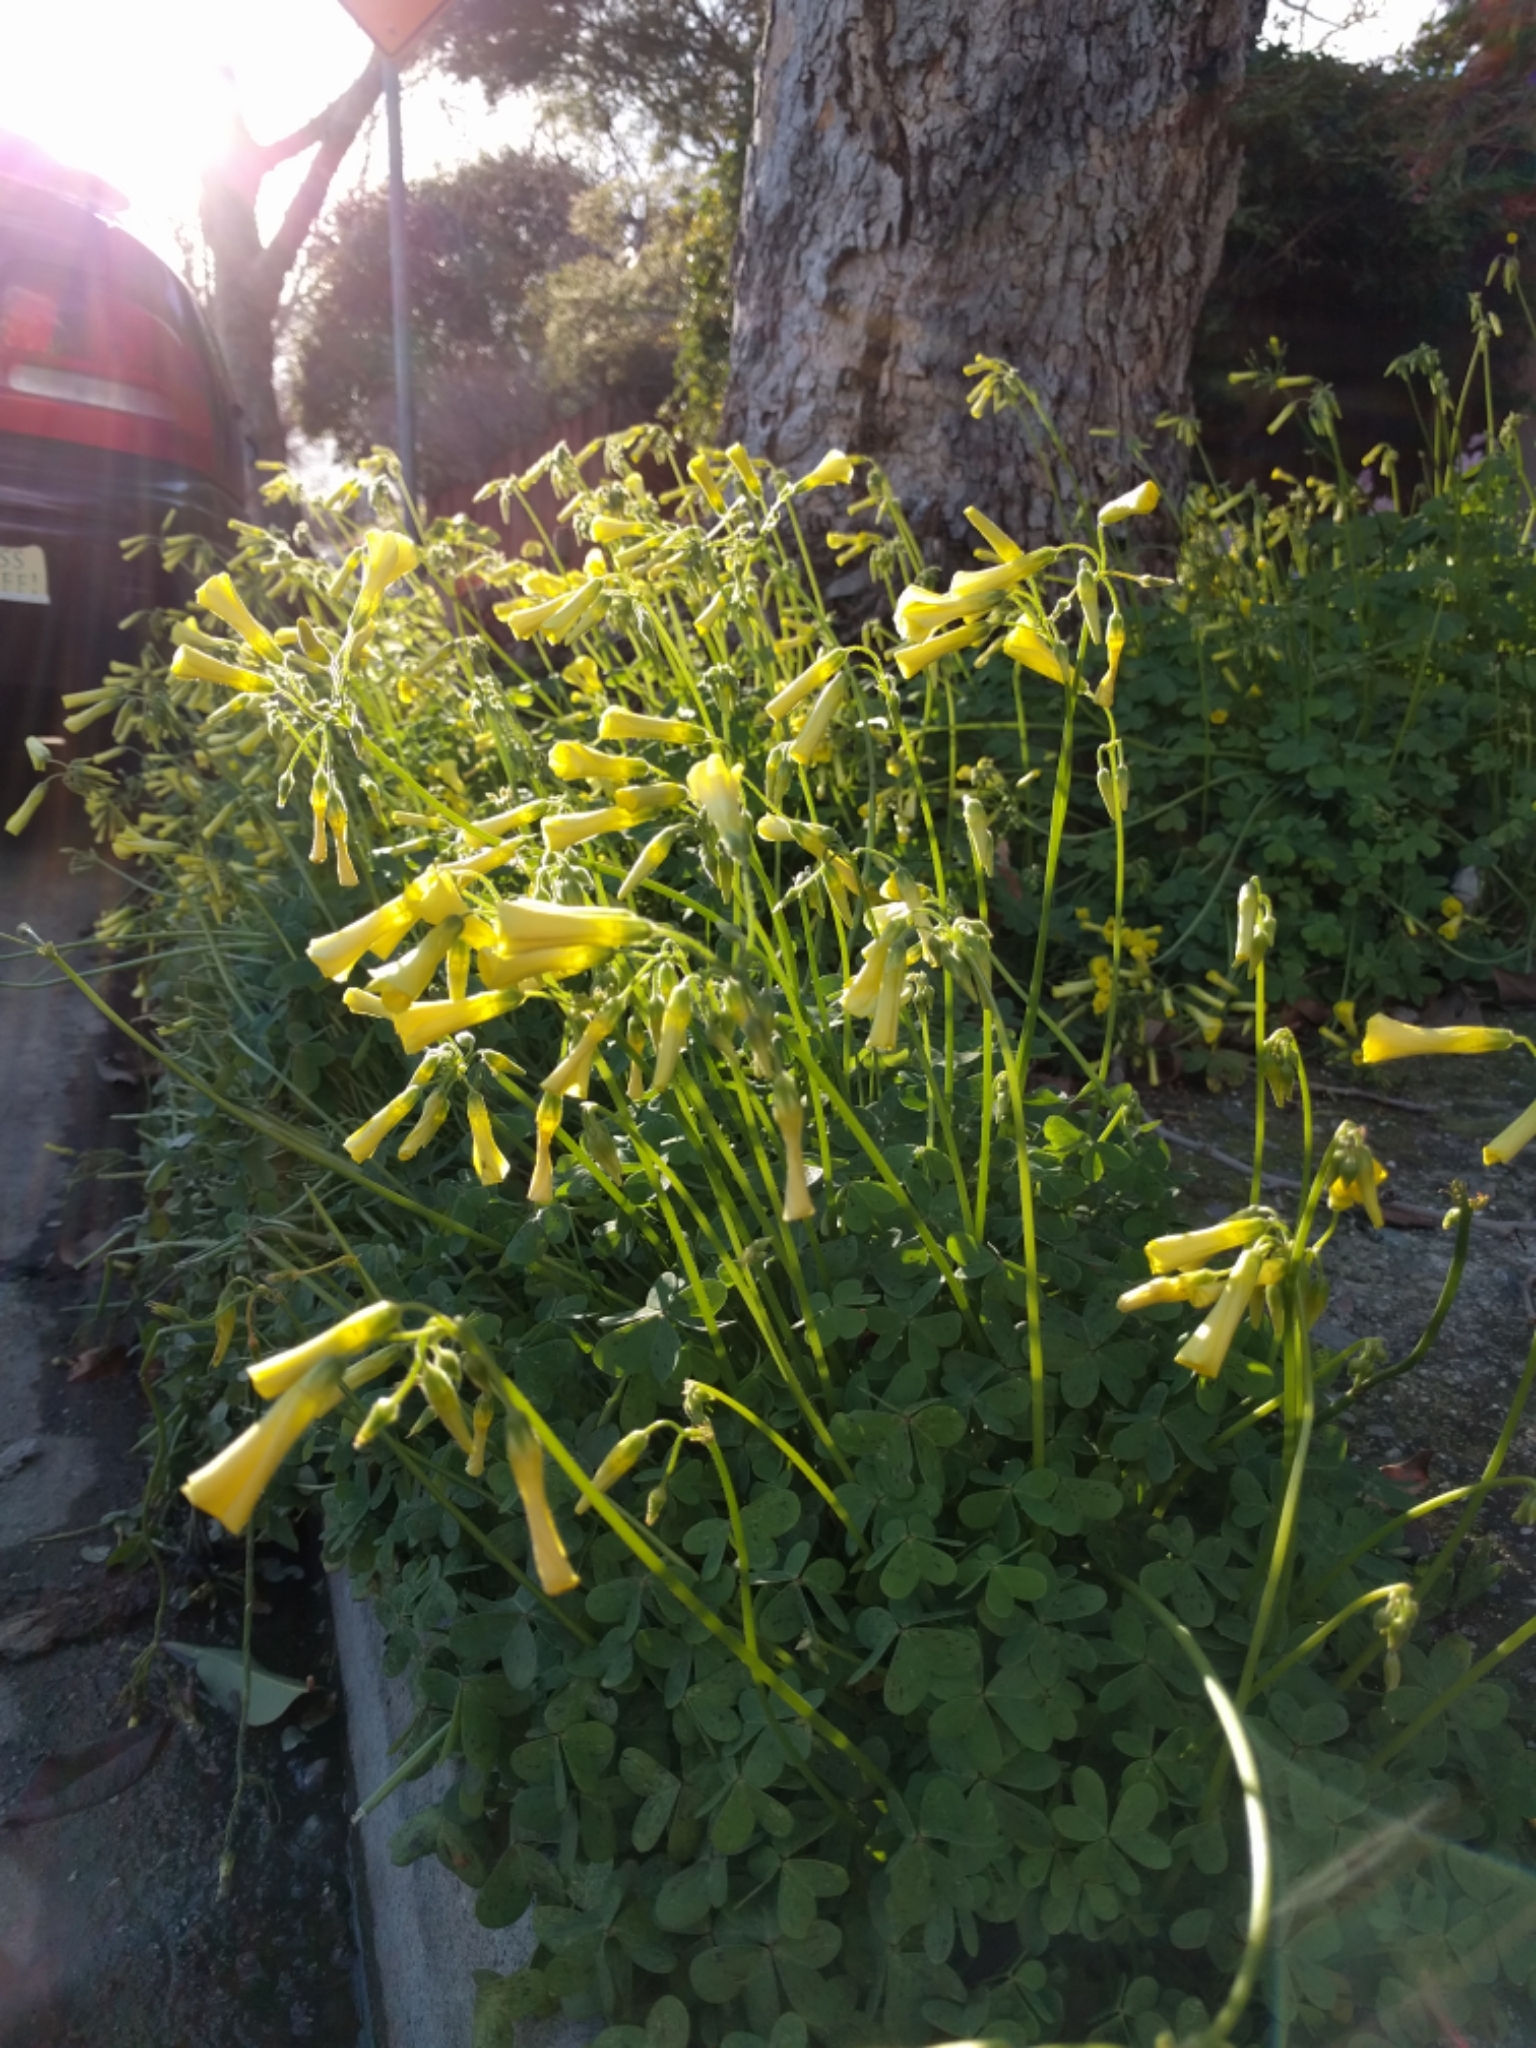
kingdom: Plantae
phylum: Tracheophyta
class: Magnoliopsida
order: Oxalidales
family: Oxalidaceae
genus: Oxalis
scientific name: Oxalis pes-caprae
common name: Bermuda-buttercup
